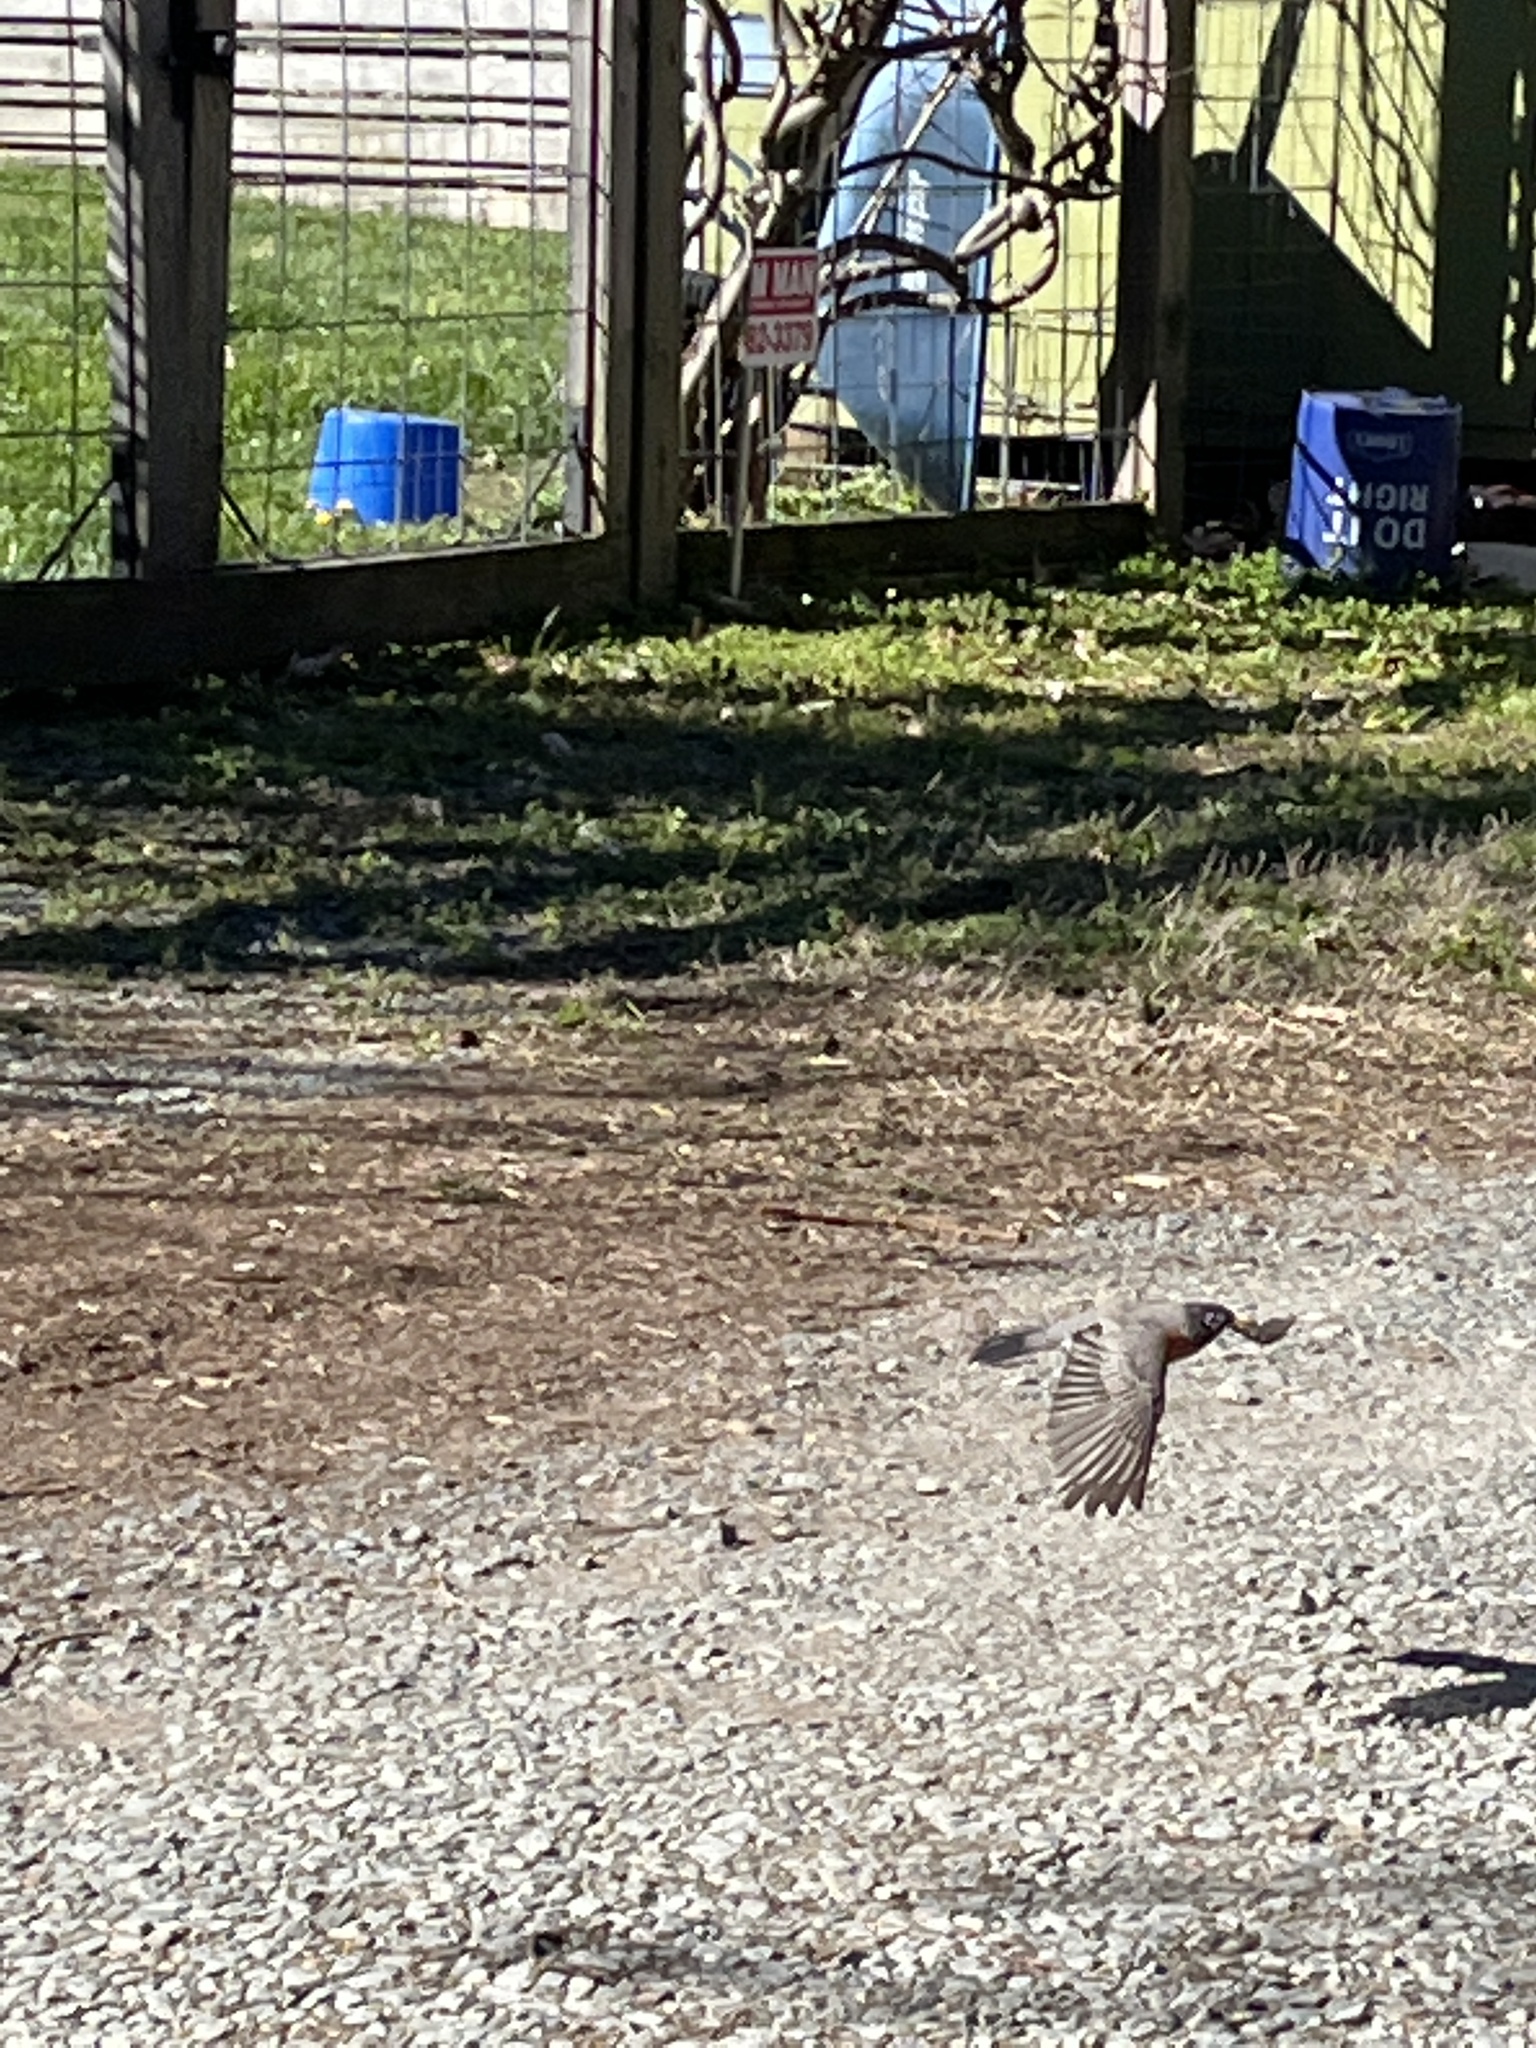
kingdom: Animalia
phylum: Chordata
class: Aves
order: Passeriformes
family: Turdidae
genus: Turdus
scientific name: Turdus migratorius
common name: American robin
